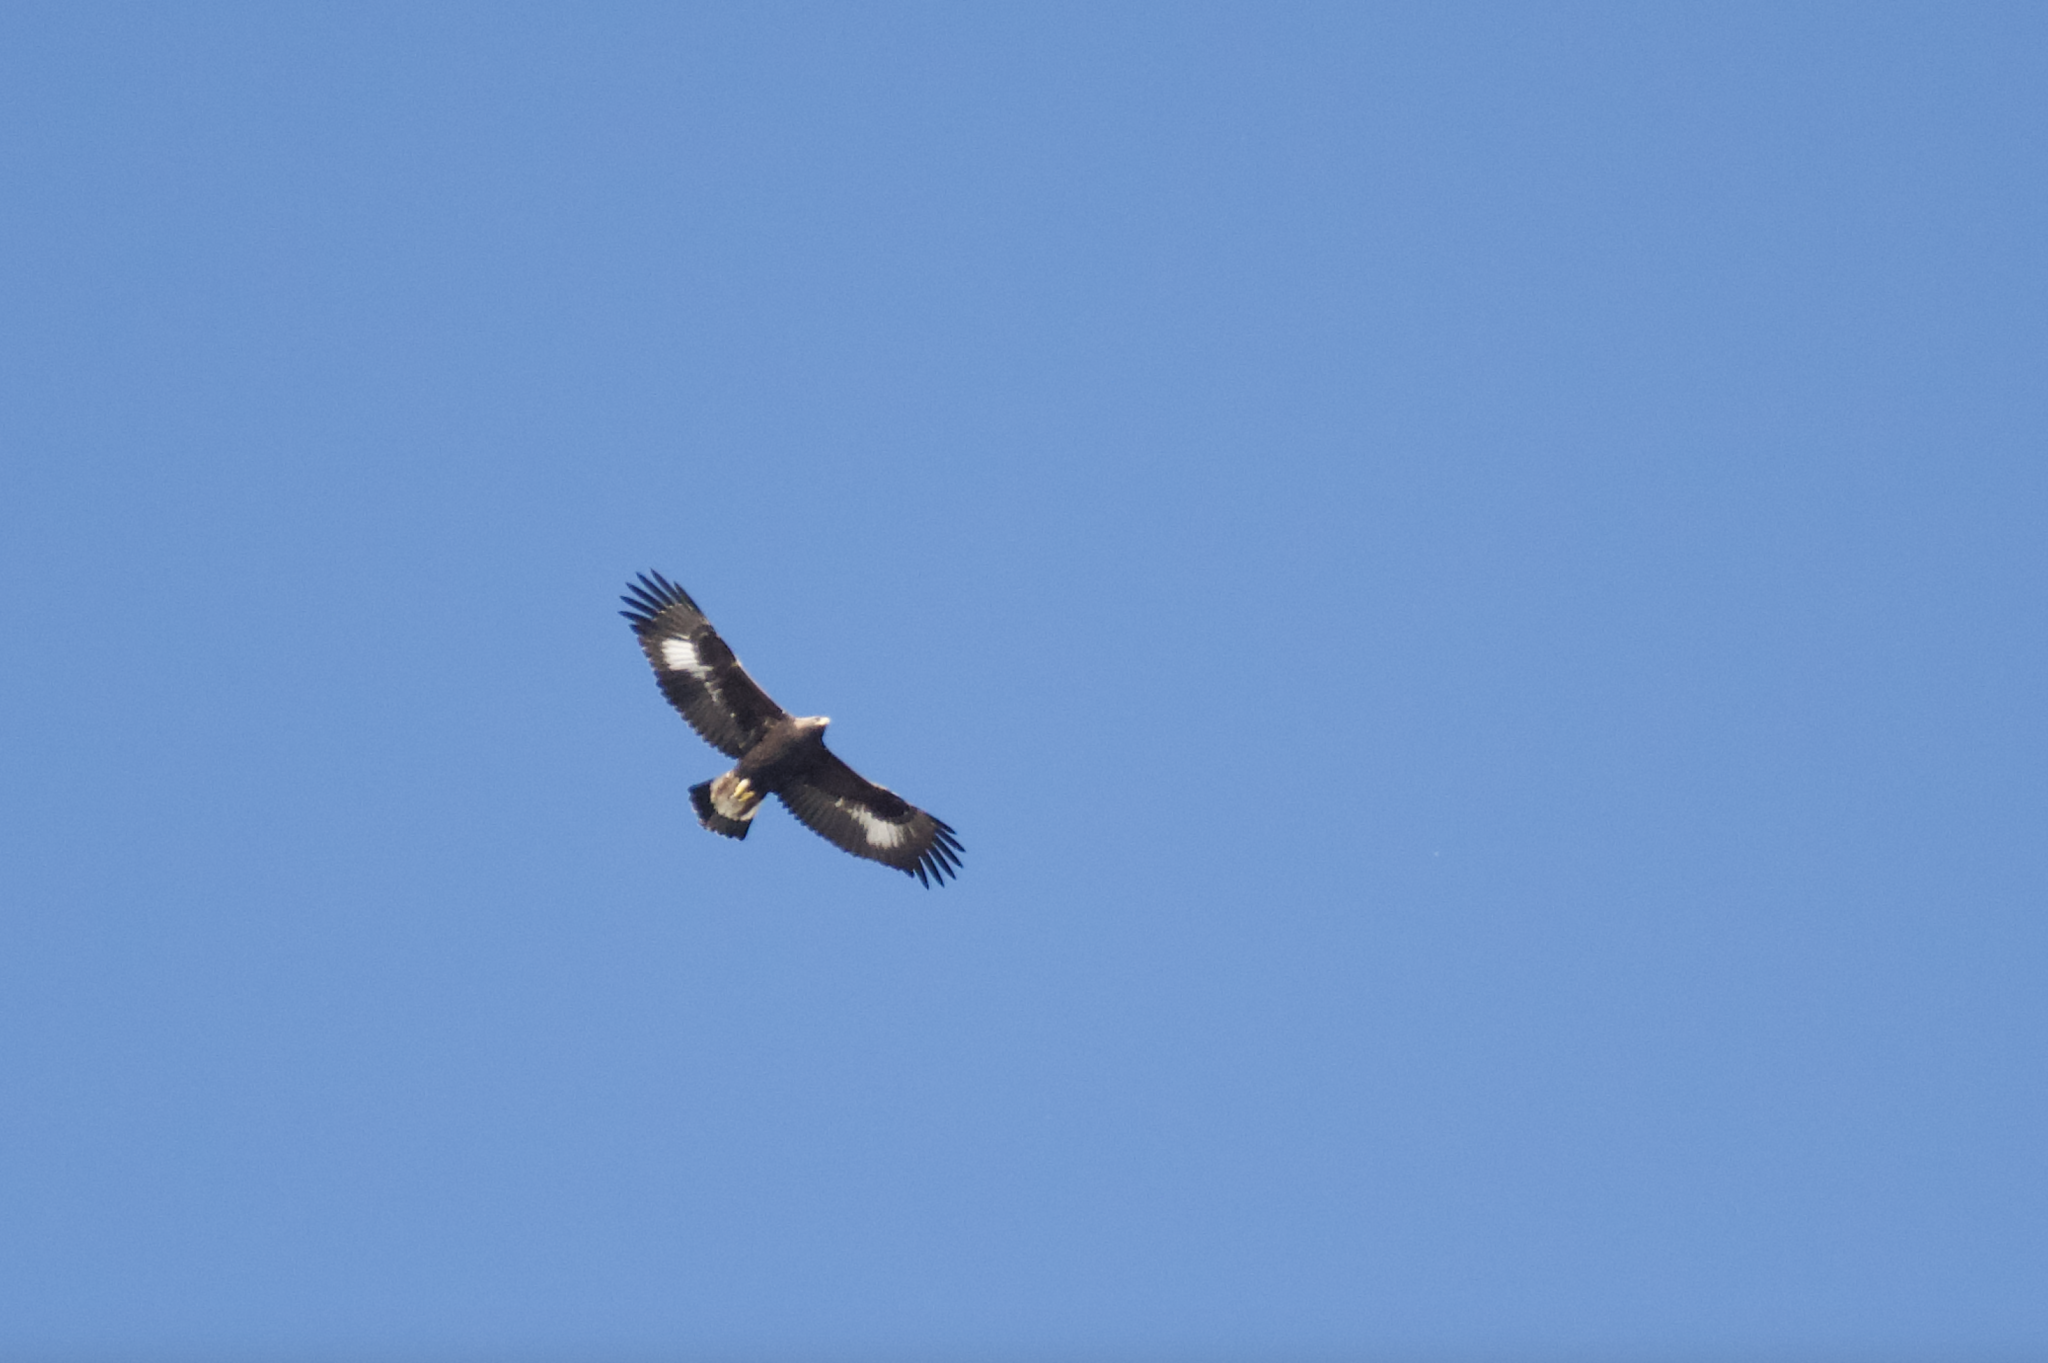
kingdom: Animalia
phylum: Chordata
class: Aves
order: Accipitriformes
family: Accipitridae
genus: Aquila
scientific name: Aquila chrysaetos
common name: Golden eagle
